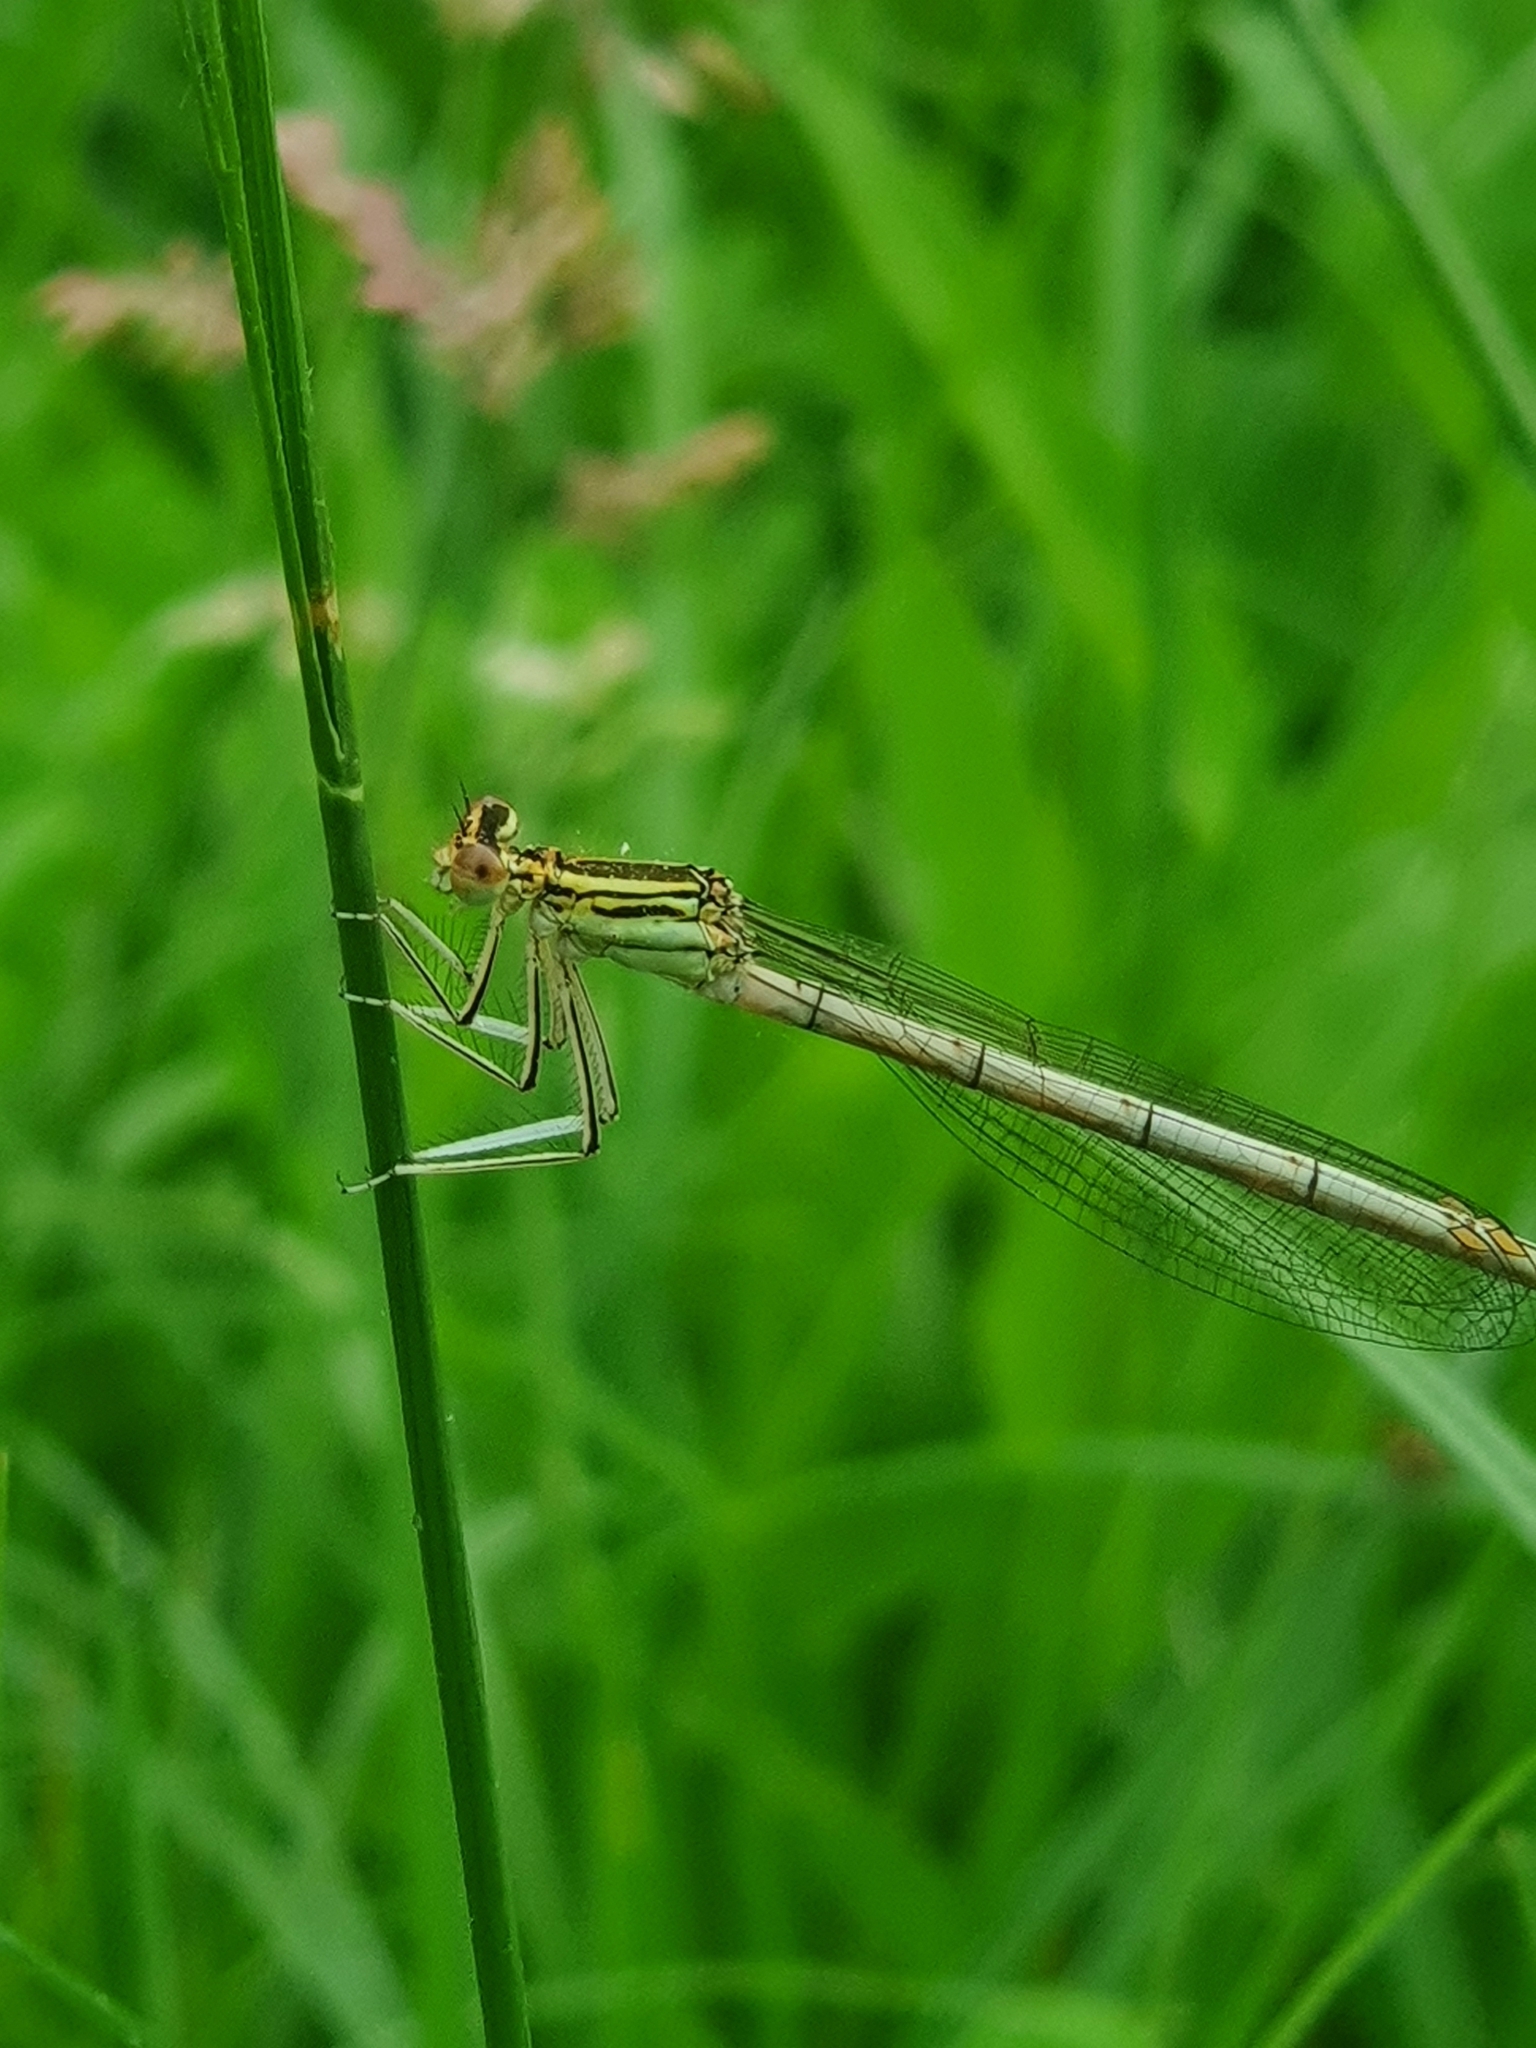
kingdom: Animalia
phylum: Arthropoda
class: Insecta
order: Odonata
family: Platycnemididae
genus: Platycnemis
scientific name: Platycnemis pennipes
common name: White-legged damselfly
